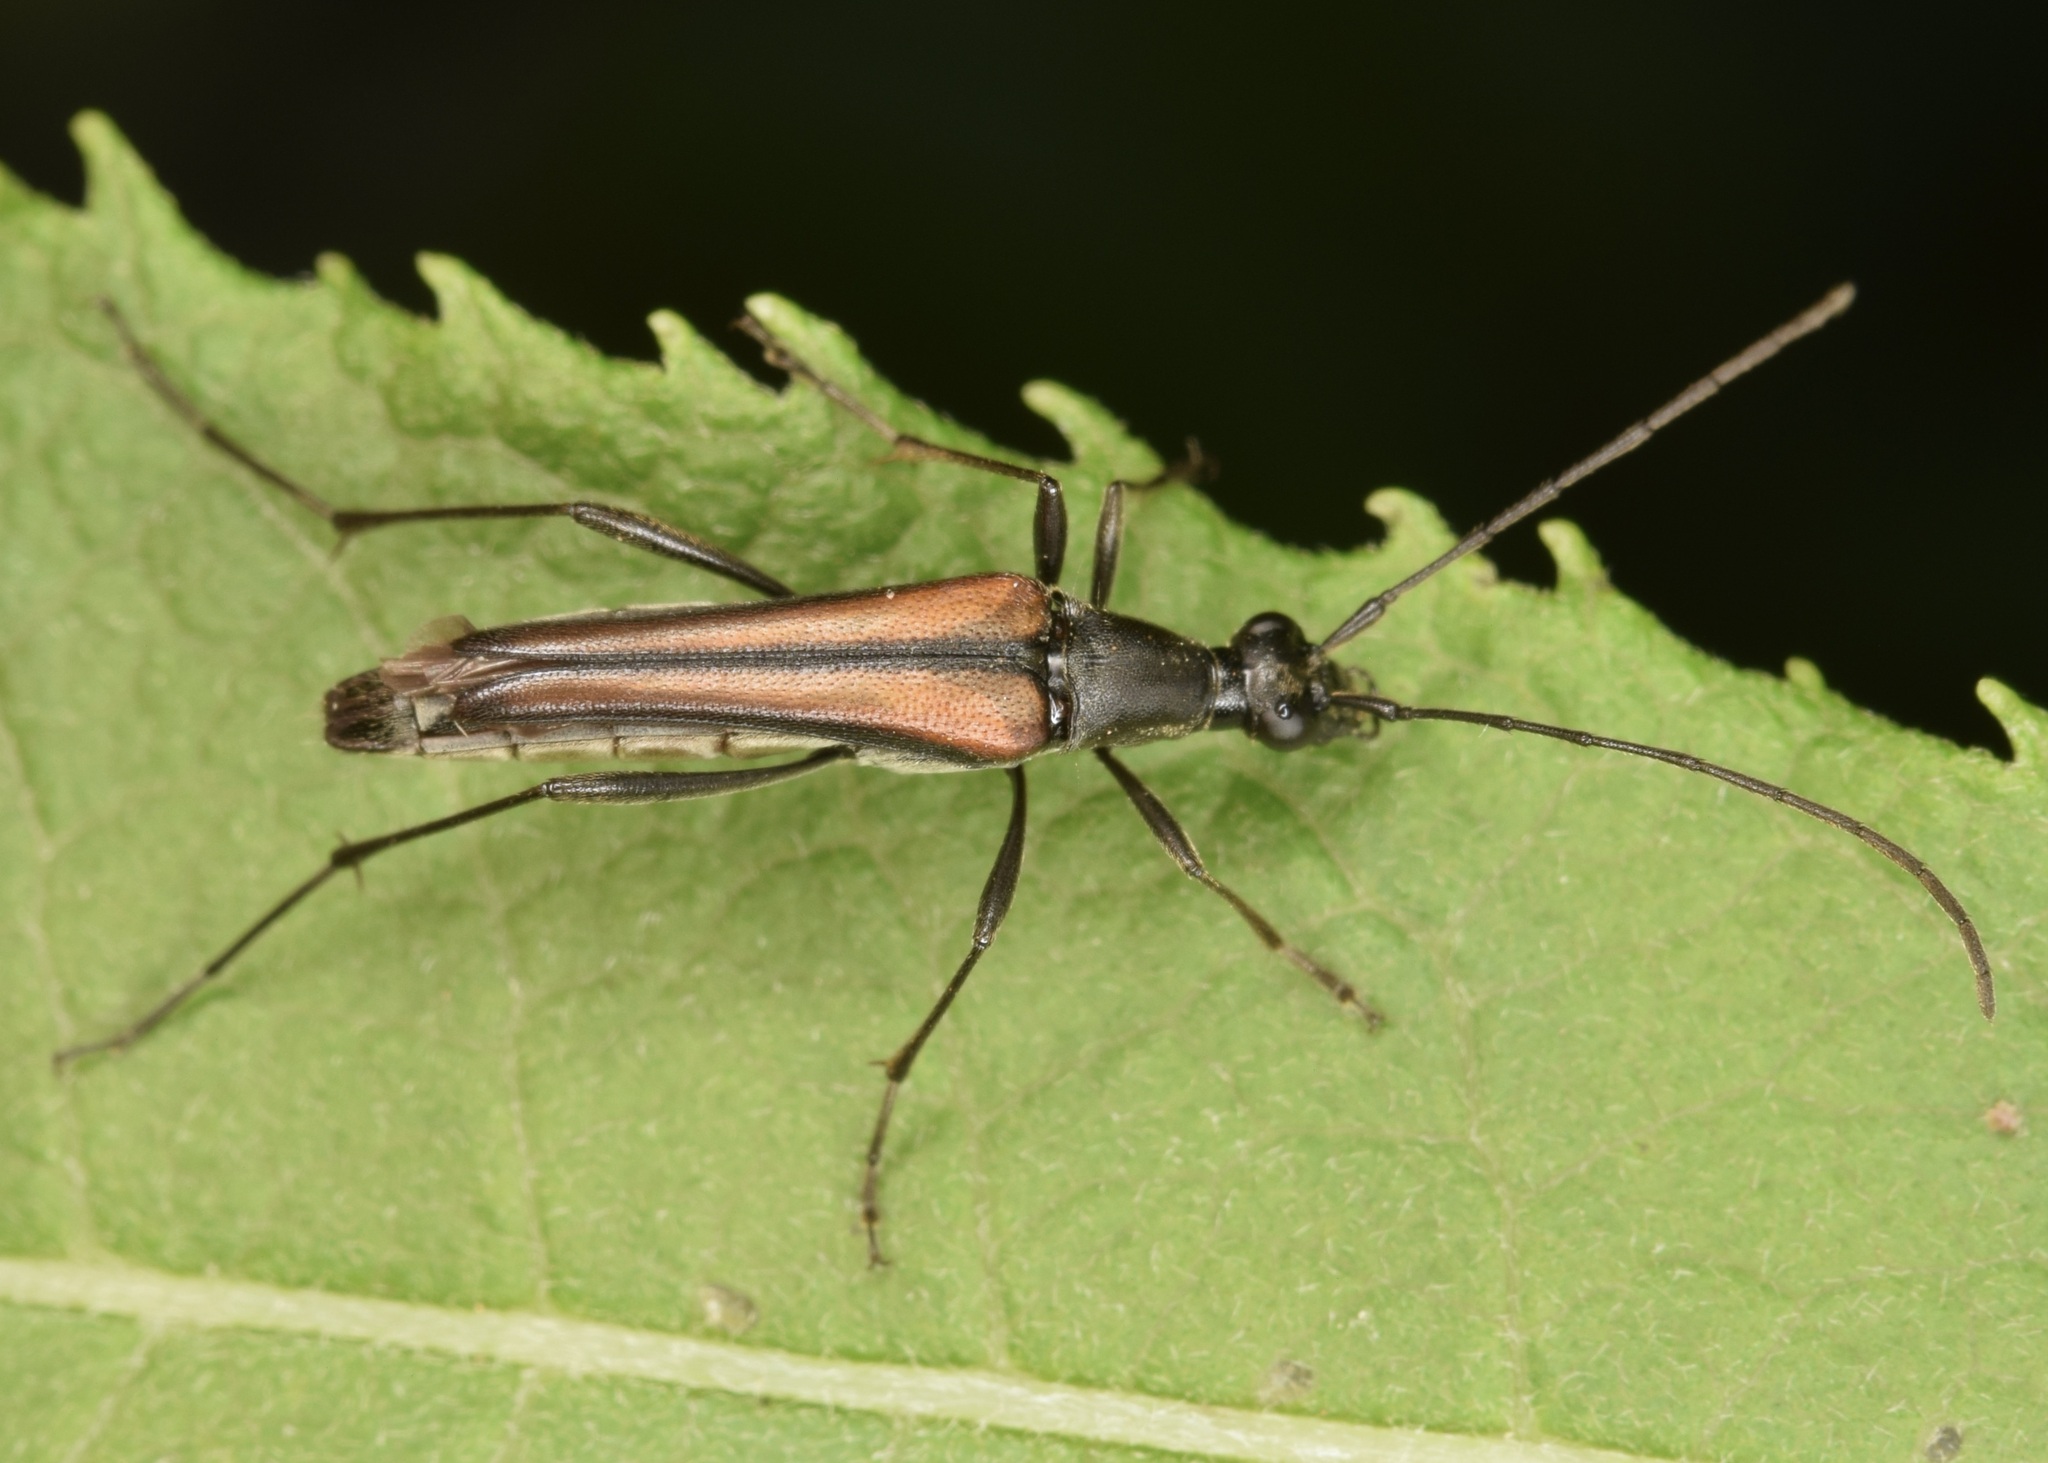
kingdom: Animalia
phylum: Arthropoda
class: Insecta
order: Coleoptera
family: Cerambycidae
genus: Strangalia
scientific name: Strangalia acuminata
